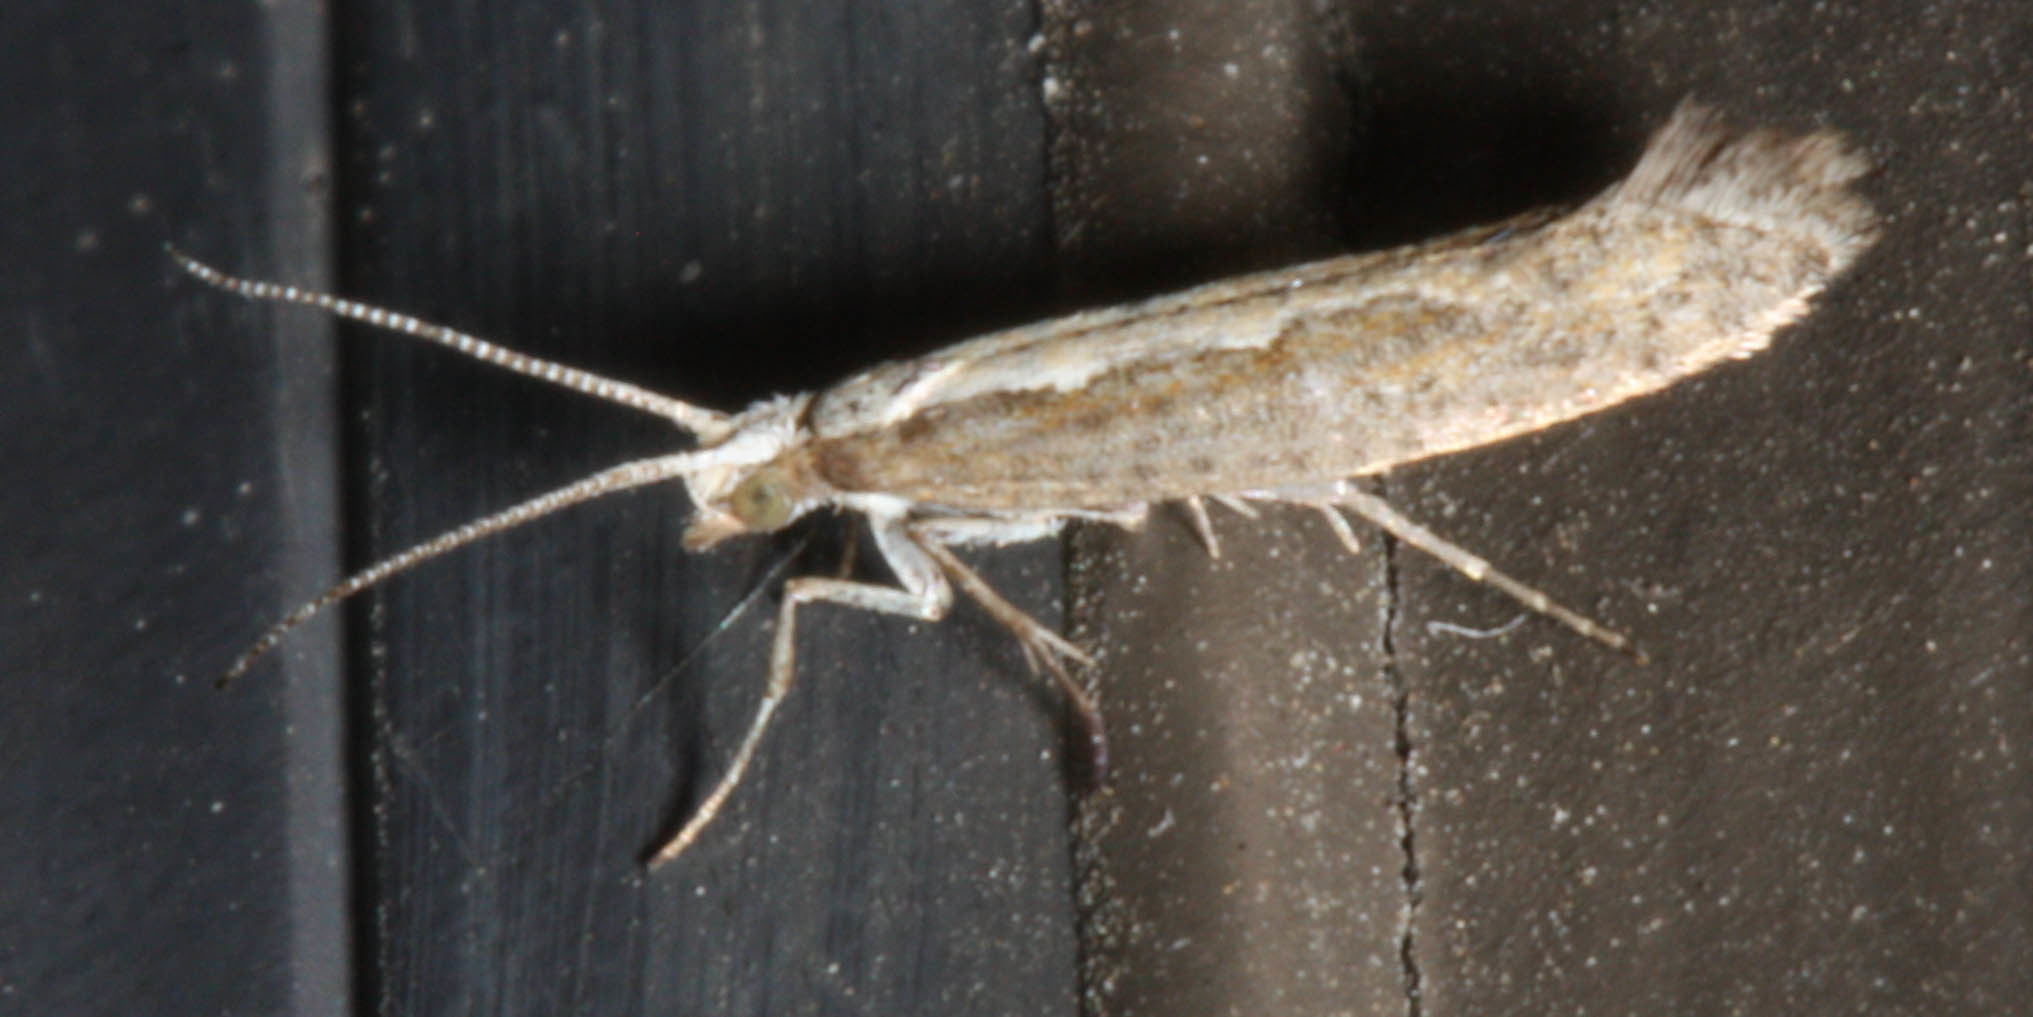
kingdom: Animalia
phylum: Arthropoda
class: Insecta
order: Lepidoptera
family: Plutellidae
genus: Plutella
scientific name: Plutella xylostella
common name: Diamond-back moth
